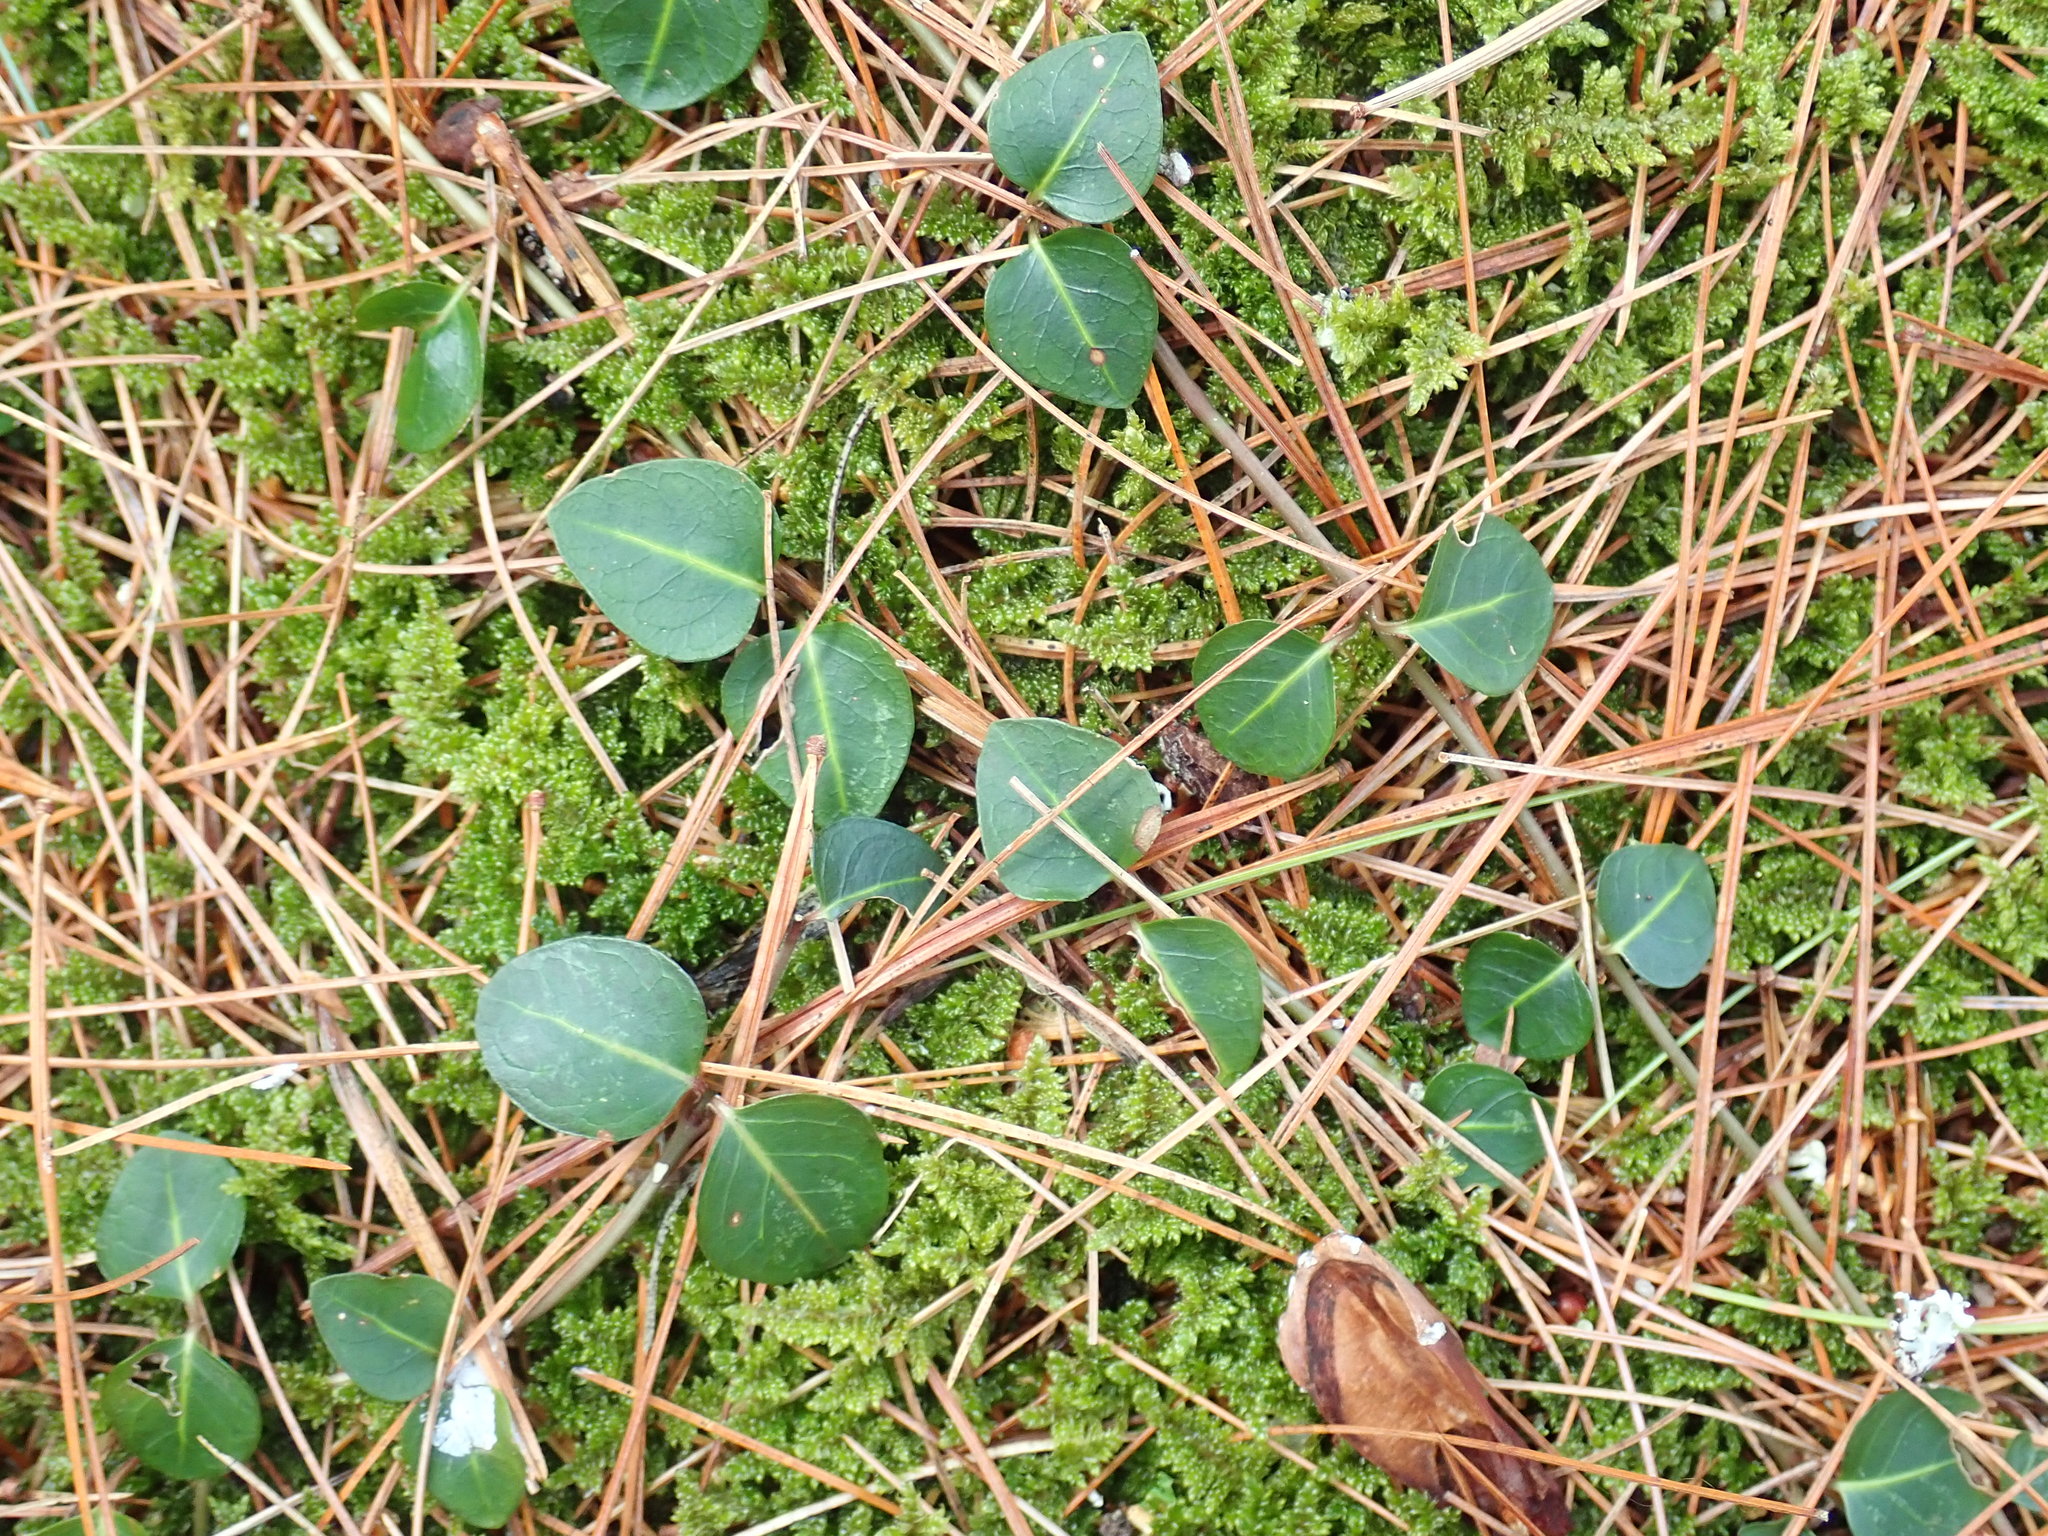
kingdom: Plantae
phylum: Tracheophyta
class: Magnoliopsida
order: Gentianales
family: Rubiaceae
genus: Mitchella
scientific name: Mitchella repens
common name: Partridge-berry
